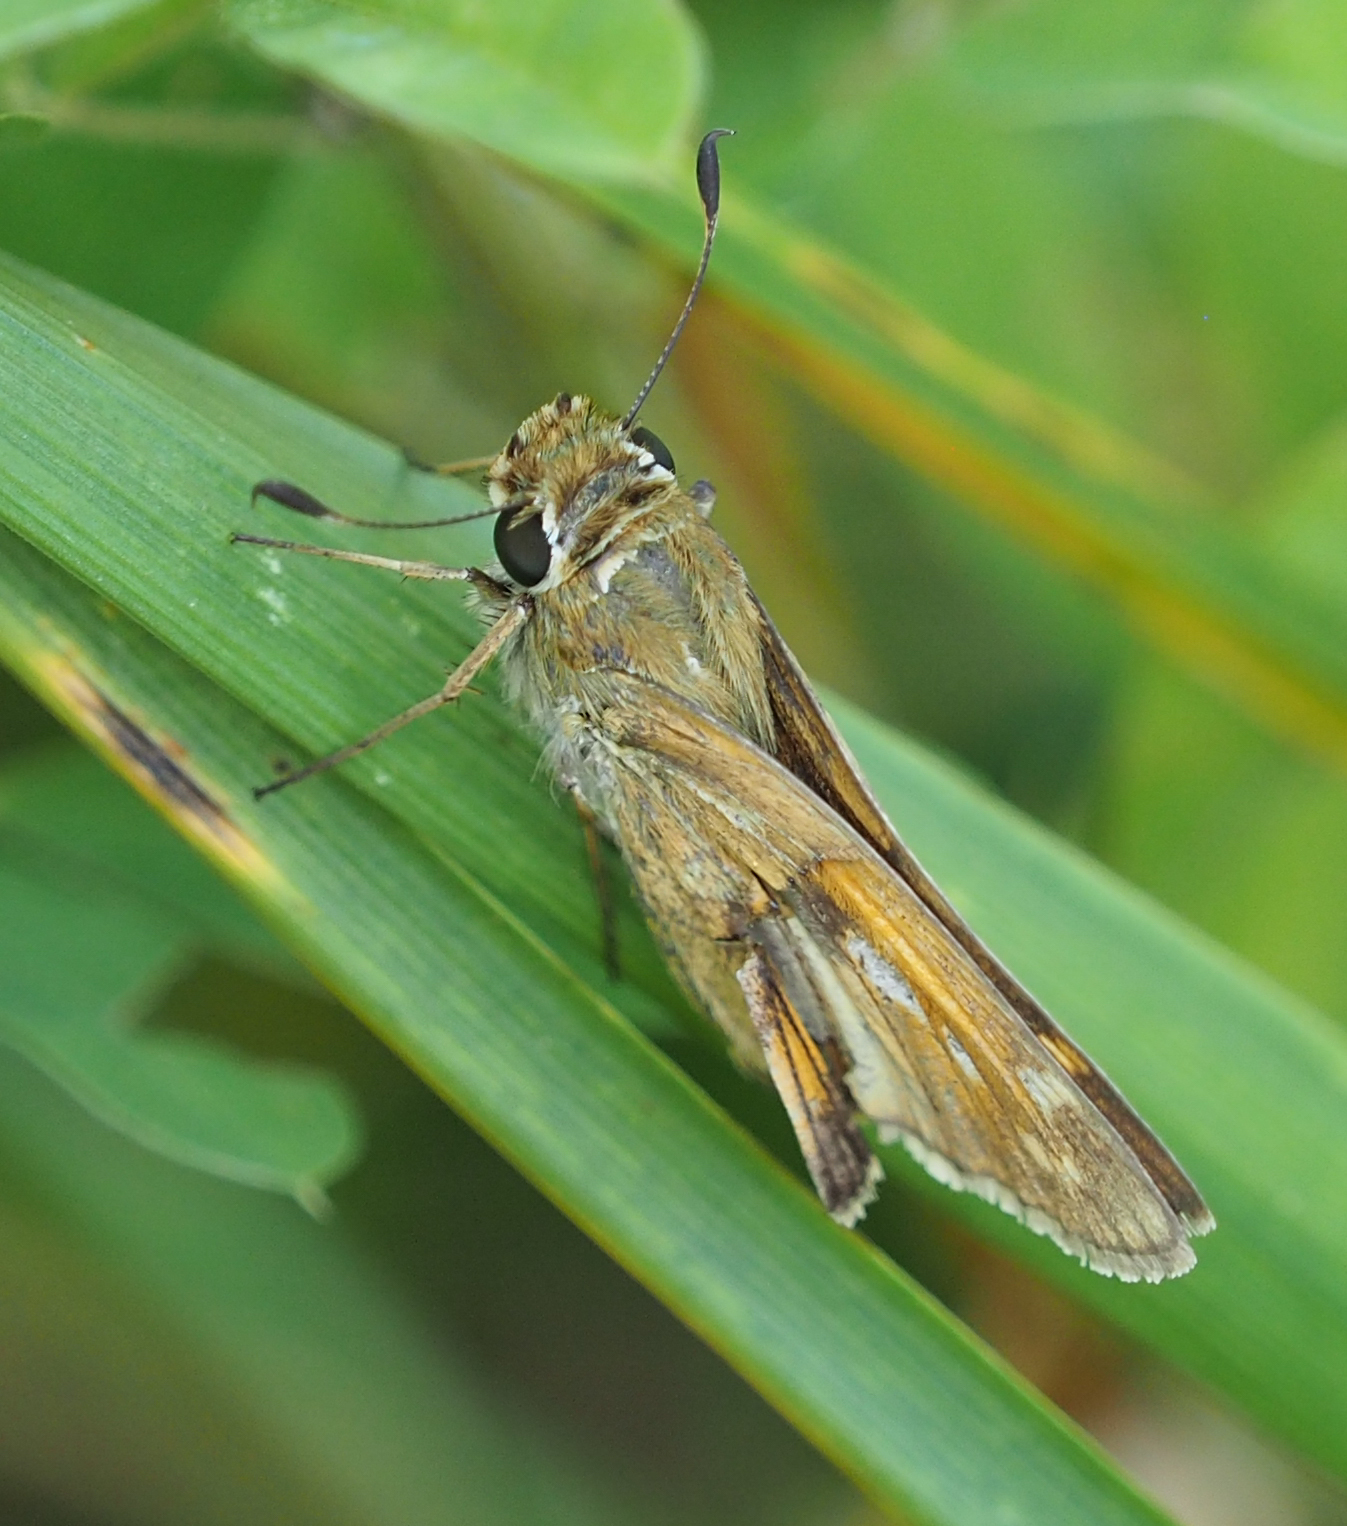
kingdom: Animalia
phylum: Arthropoda
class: Insecta
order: Lepidoptera
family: Hesperiidae
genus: Atalopedes
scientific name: Atalopedes
